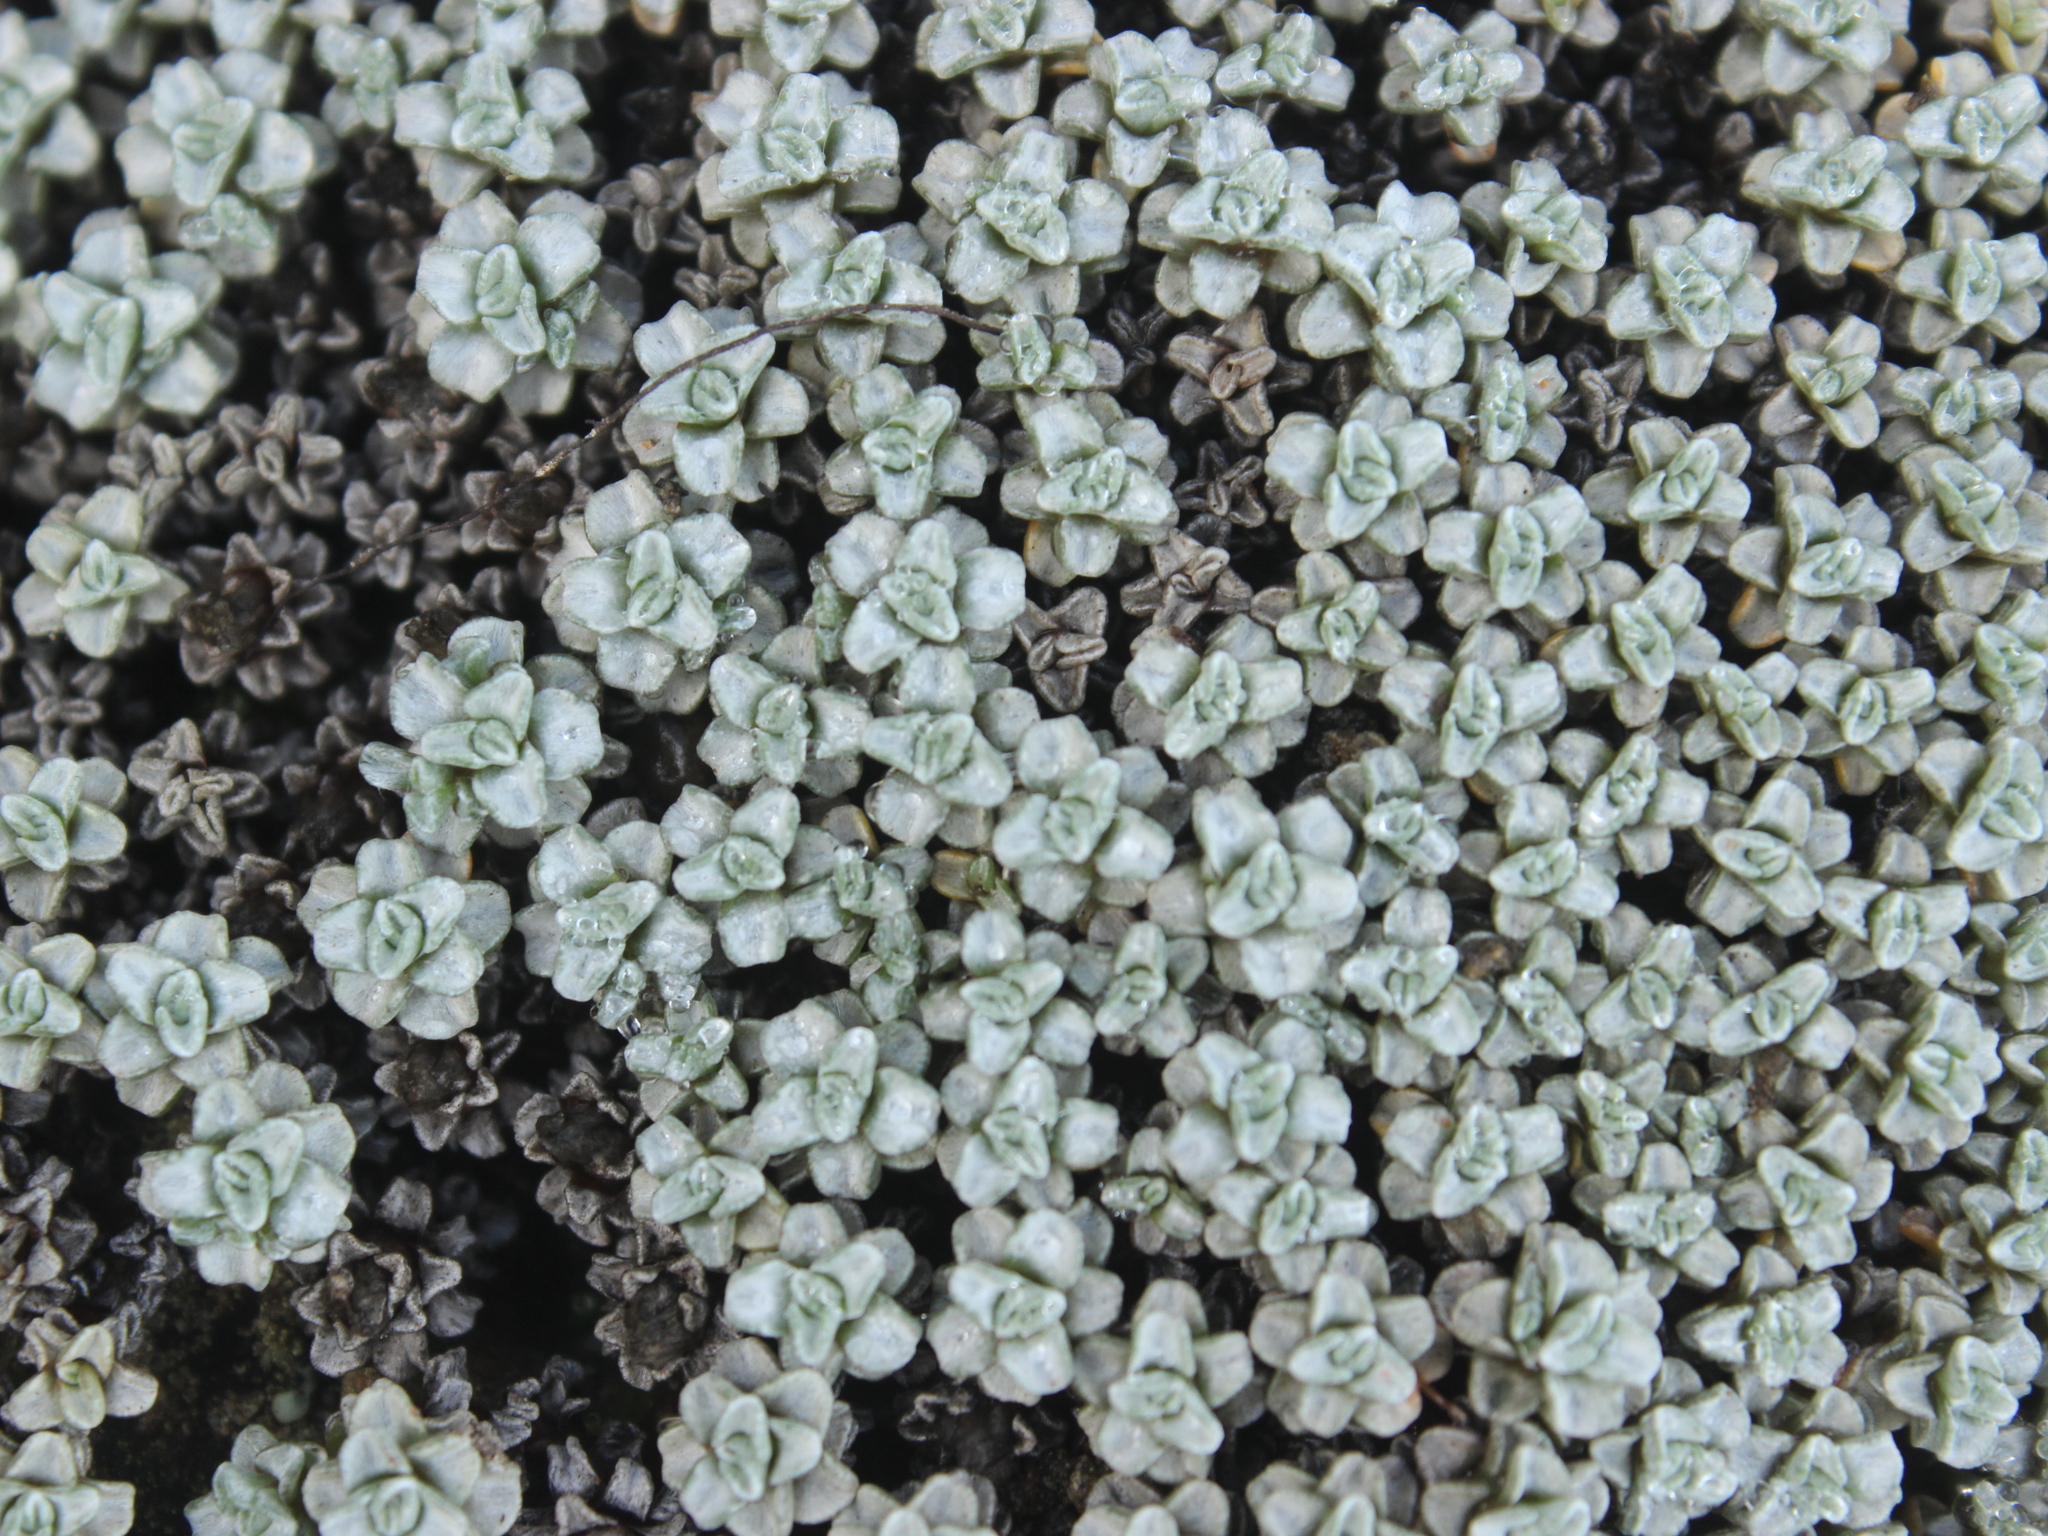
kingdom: Plantae
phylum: Tracheophyta
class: Magnoliopsida
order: Asterales
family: Asteraceae
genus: Raoulia
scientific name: Raoulia hookeri
